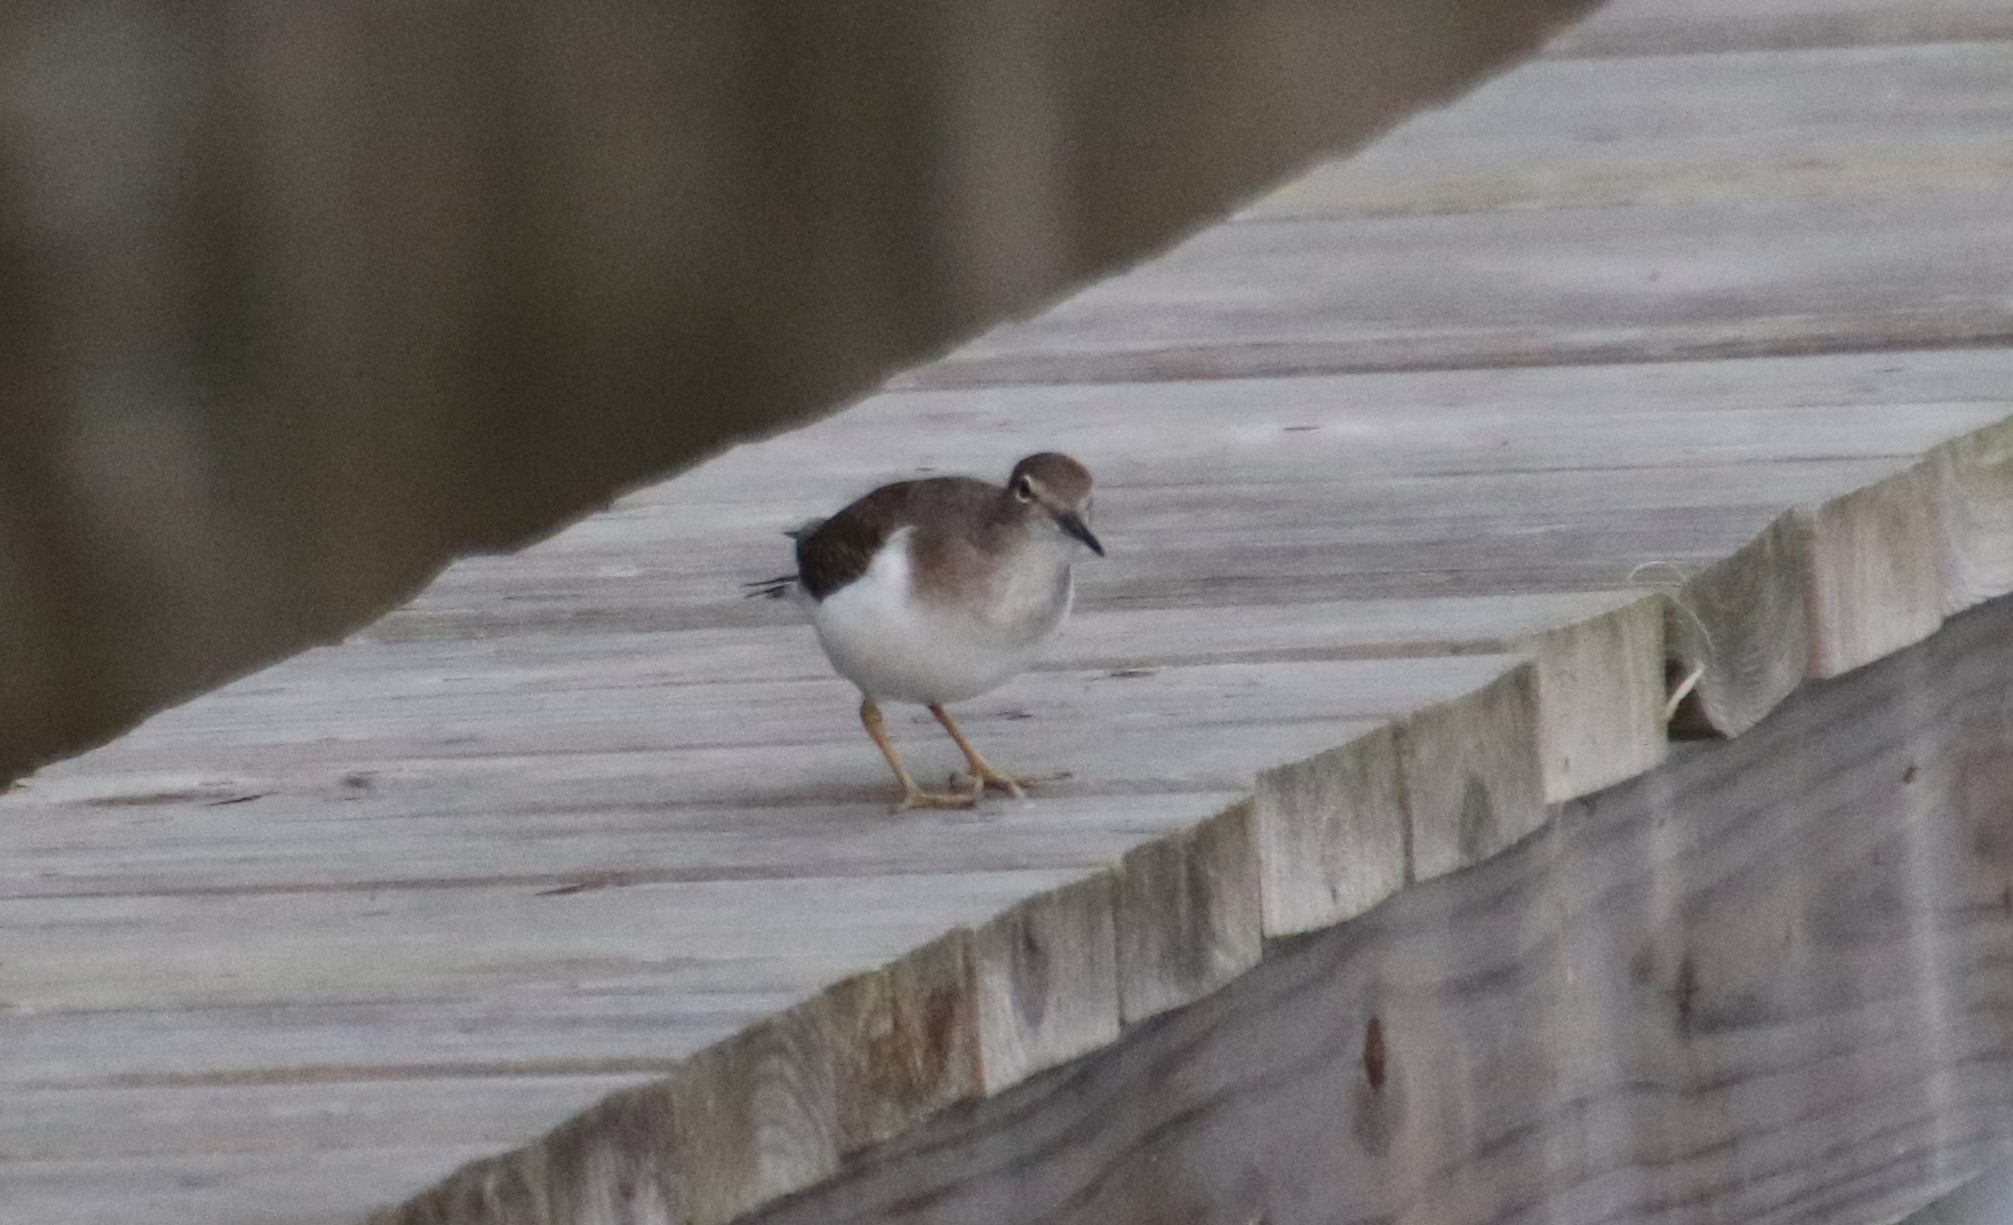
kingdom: Animalia
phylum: Chordata
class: Aves
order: Charadriiformes
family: Scolopacidae
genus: Actitis
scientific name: Actitis macularius
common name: Spotted sandpiper
